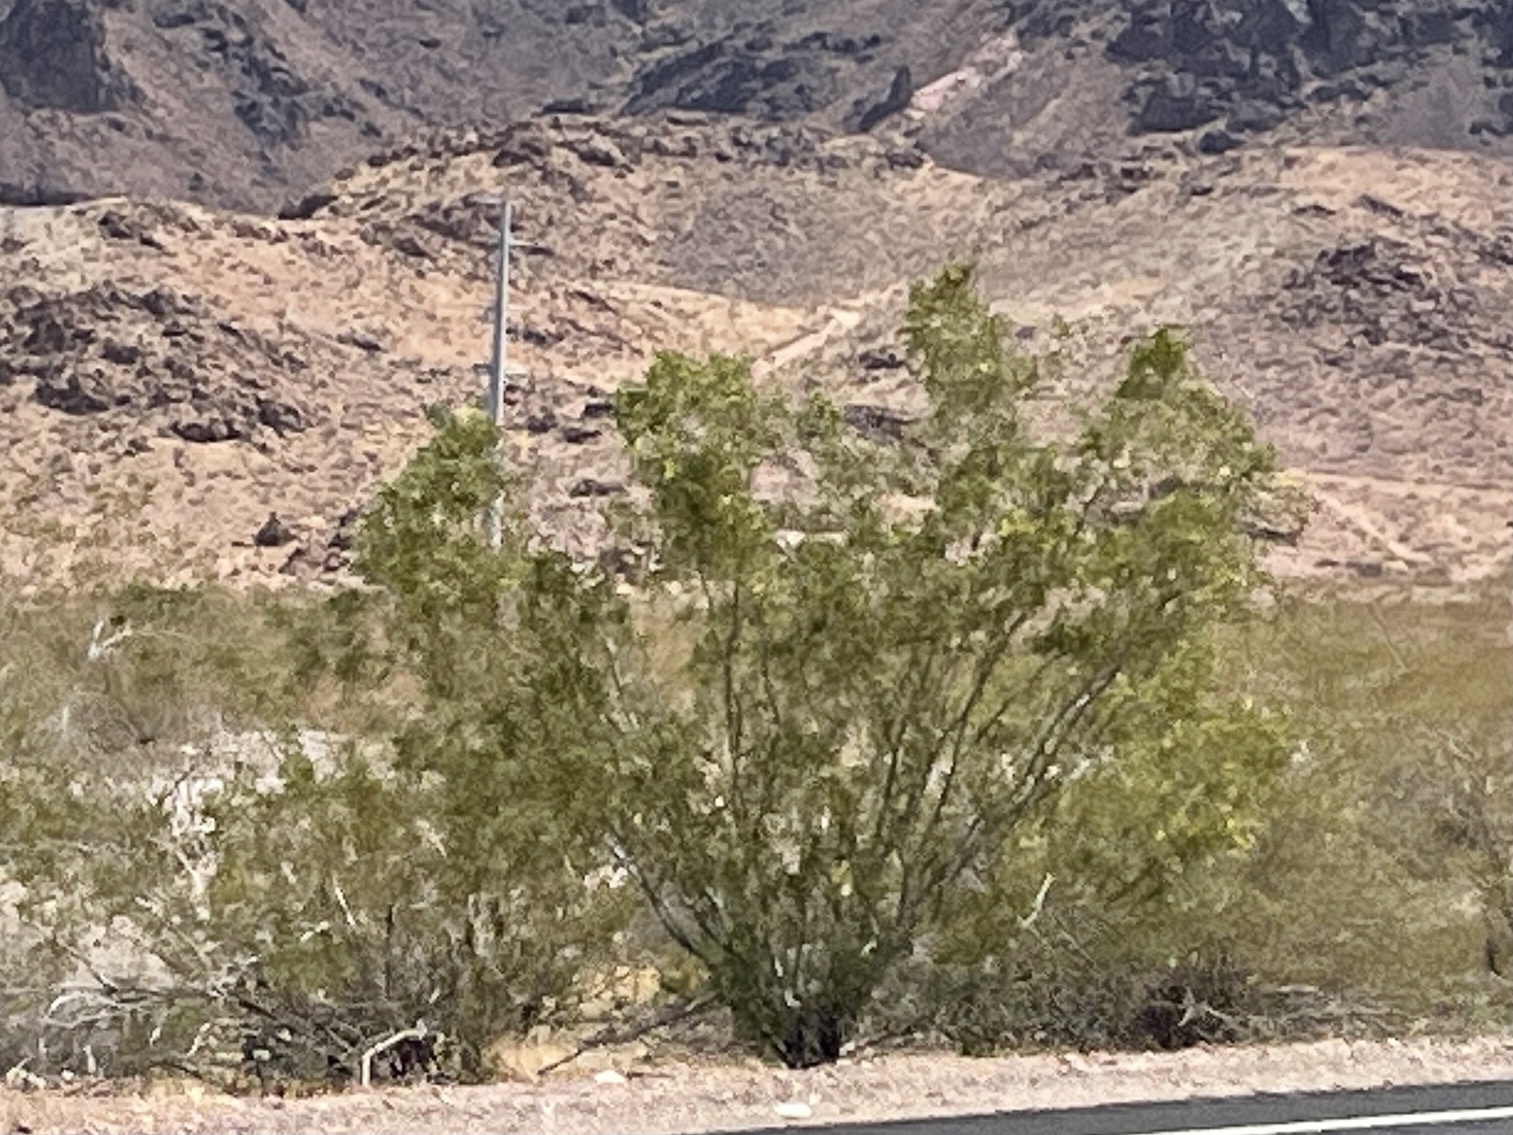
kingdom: Plantae
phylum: Tracheophyta
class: Magnoliopsida
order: Zygophyllales
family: Zygophyllaceae
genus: Larrea
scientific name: Larrea tridentata
